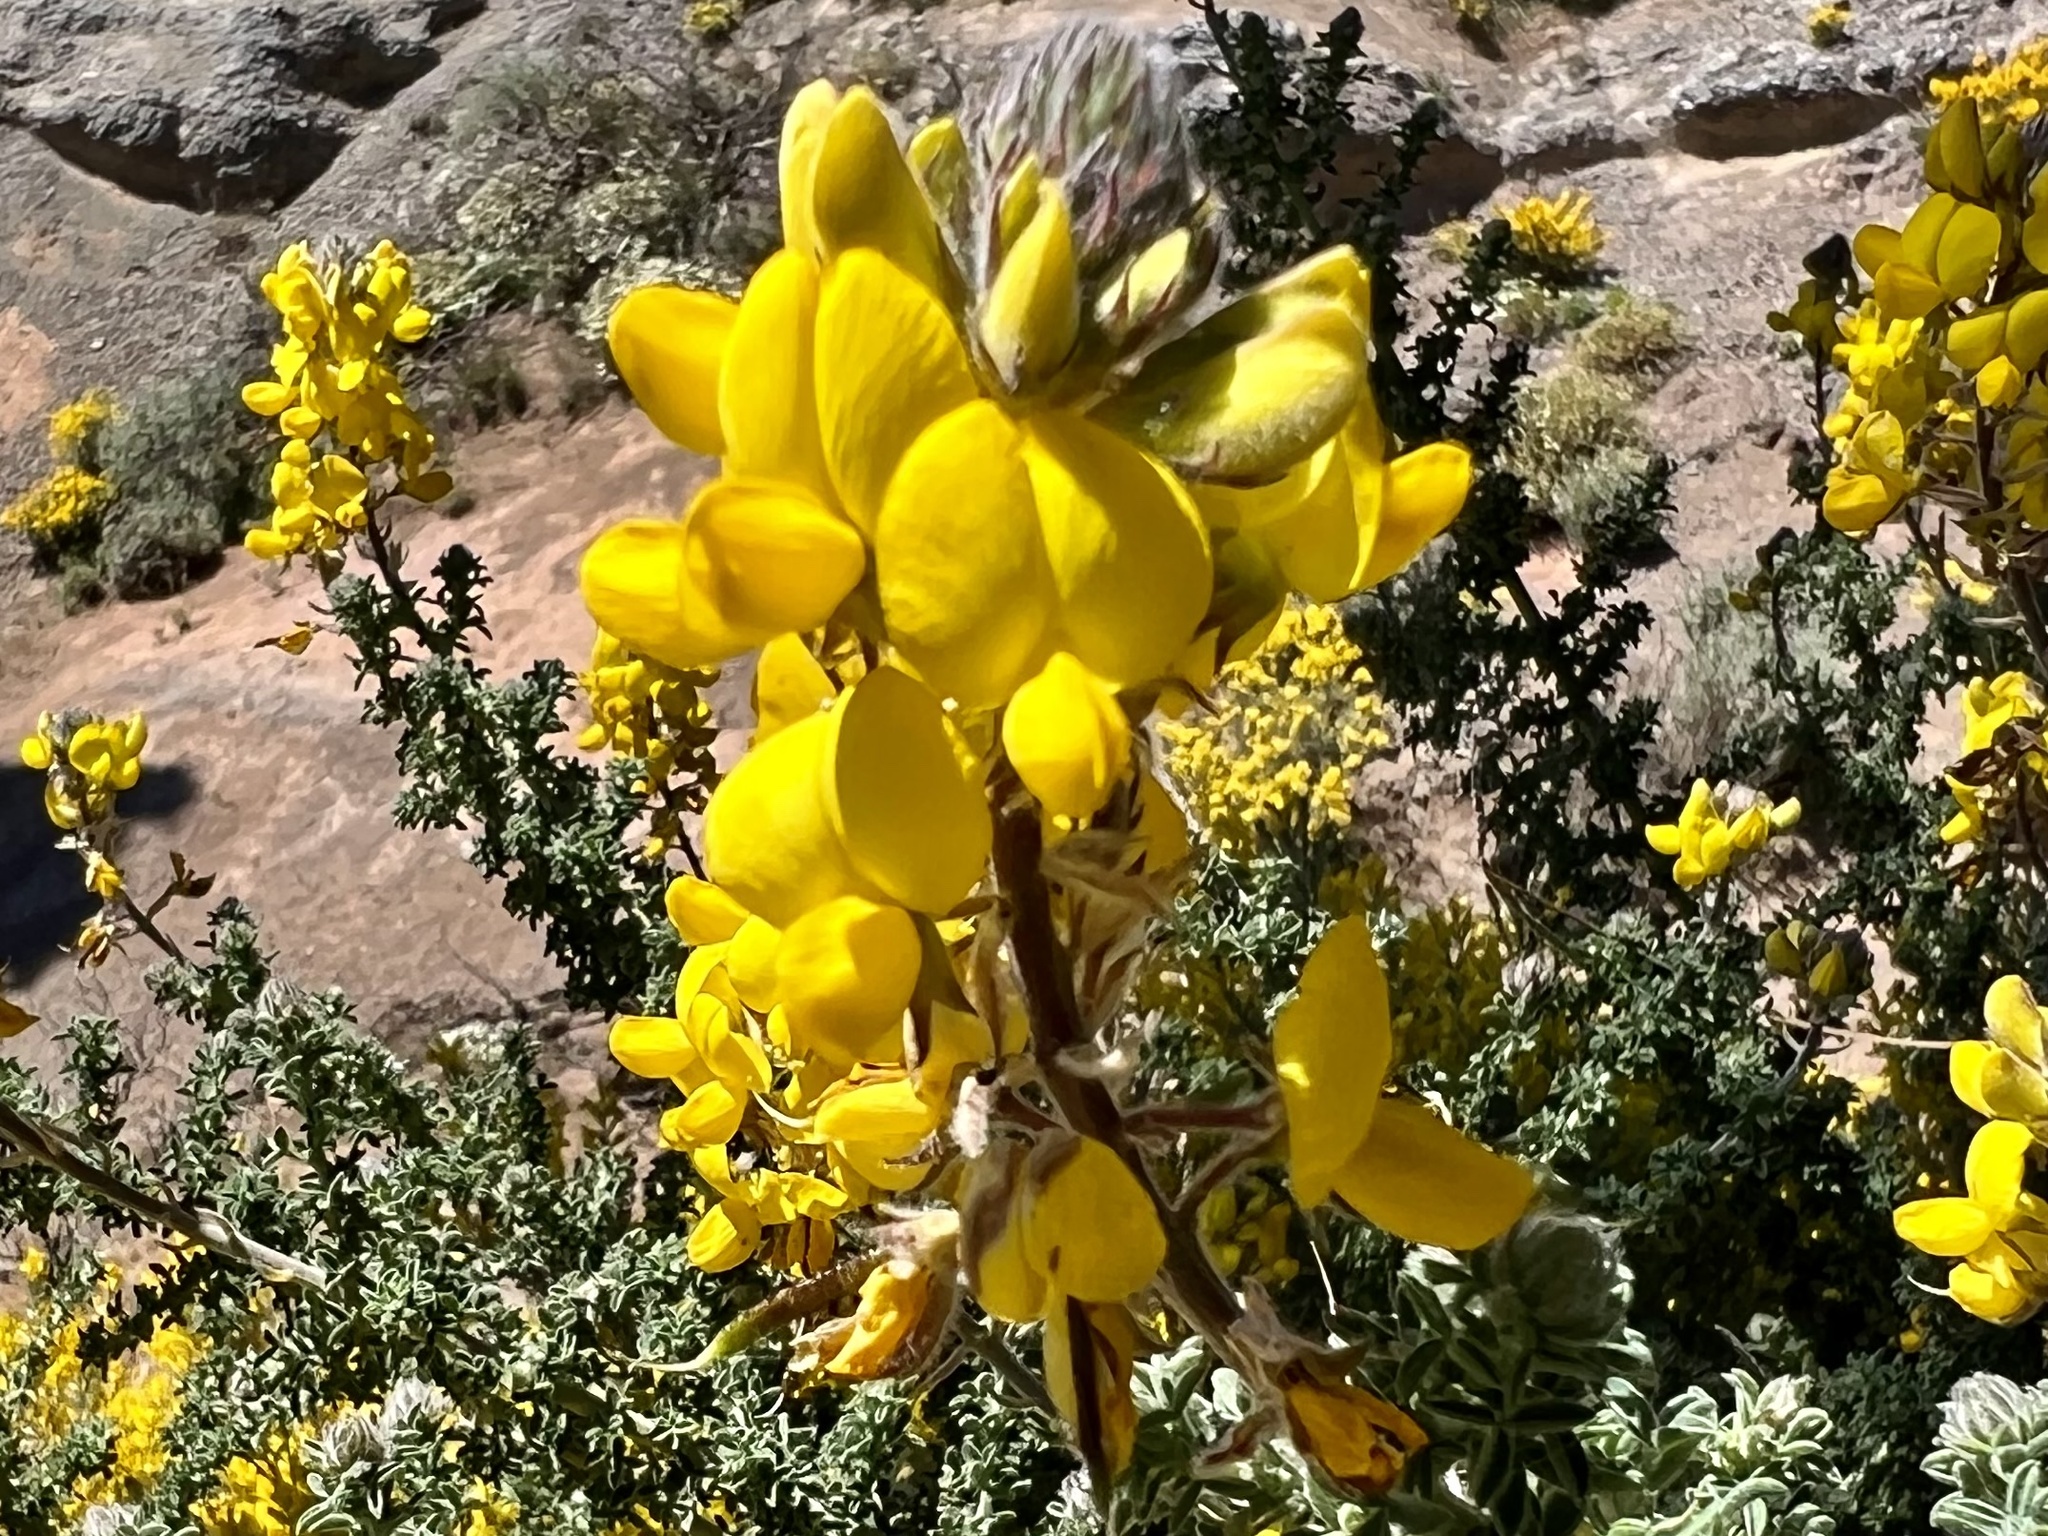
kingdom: Plantae
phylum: Tracheophyta
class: Magnoliopsida
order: Fabales
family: Fabaceae
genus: Adenocarpus
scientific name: Adenocarpus foliolosus
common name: Canary island flatpod
